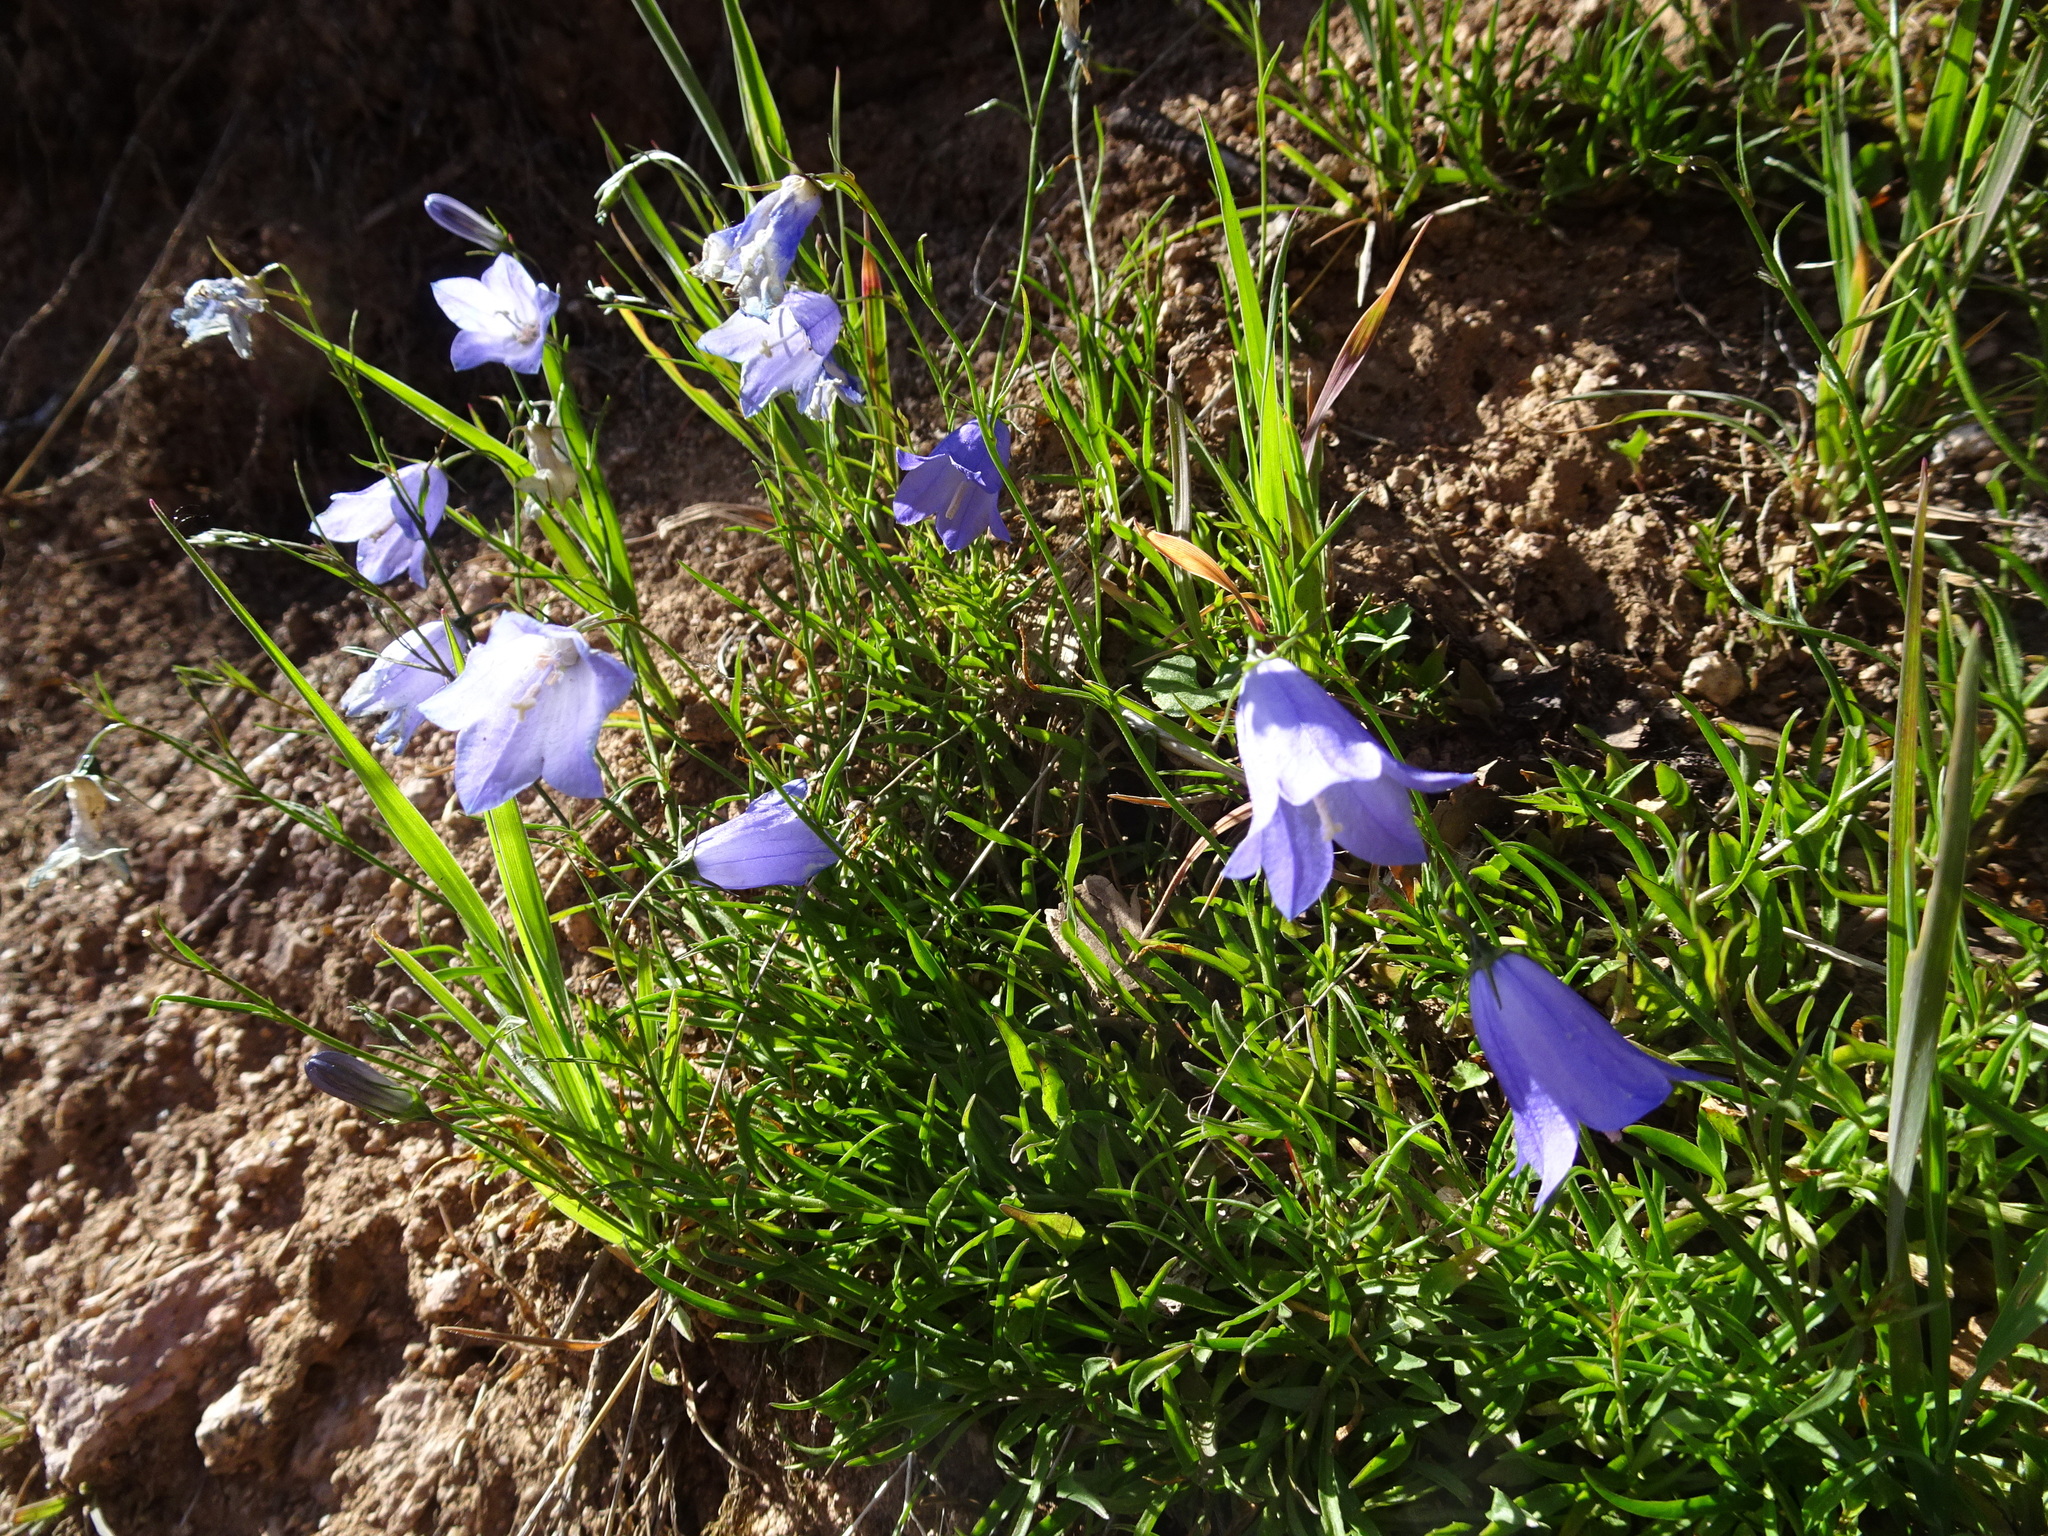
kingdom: Plantae
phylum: Tracheophyta
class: Magnoliopsida
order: Asterales
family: Campanulaceae
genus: Campanula
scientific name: Campanula rotundifolia
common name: Harebell
